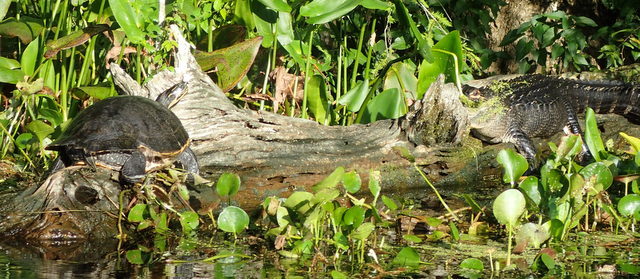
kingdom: Animalia
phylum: Chordata
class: Testudines
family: Emydidae
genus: Pseudemys
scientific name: Pseudemys concinna
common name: Eastern river cooter
